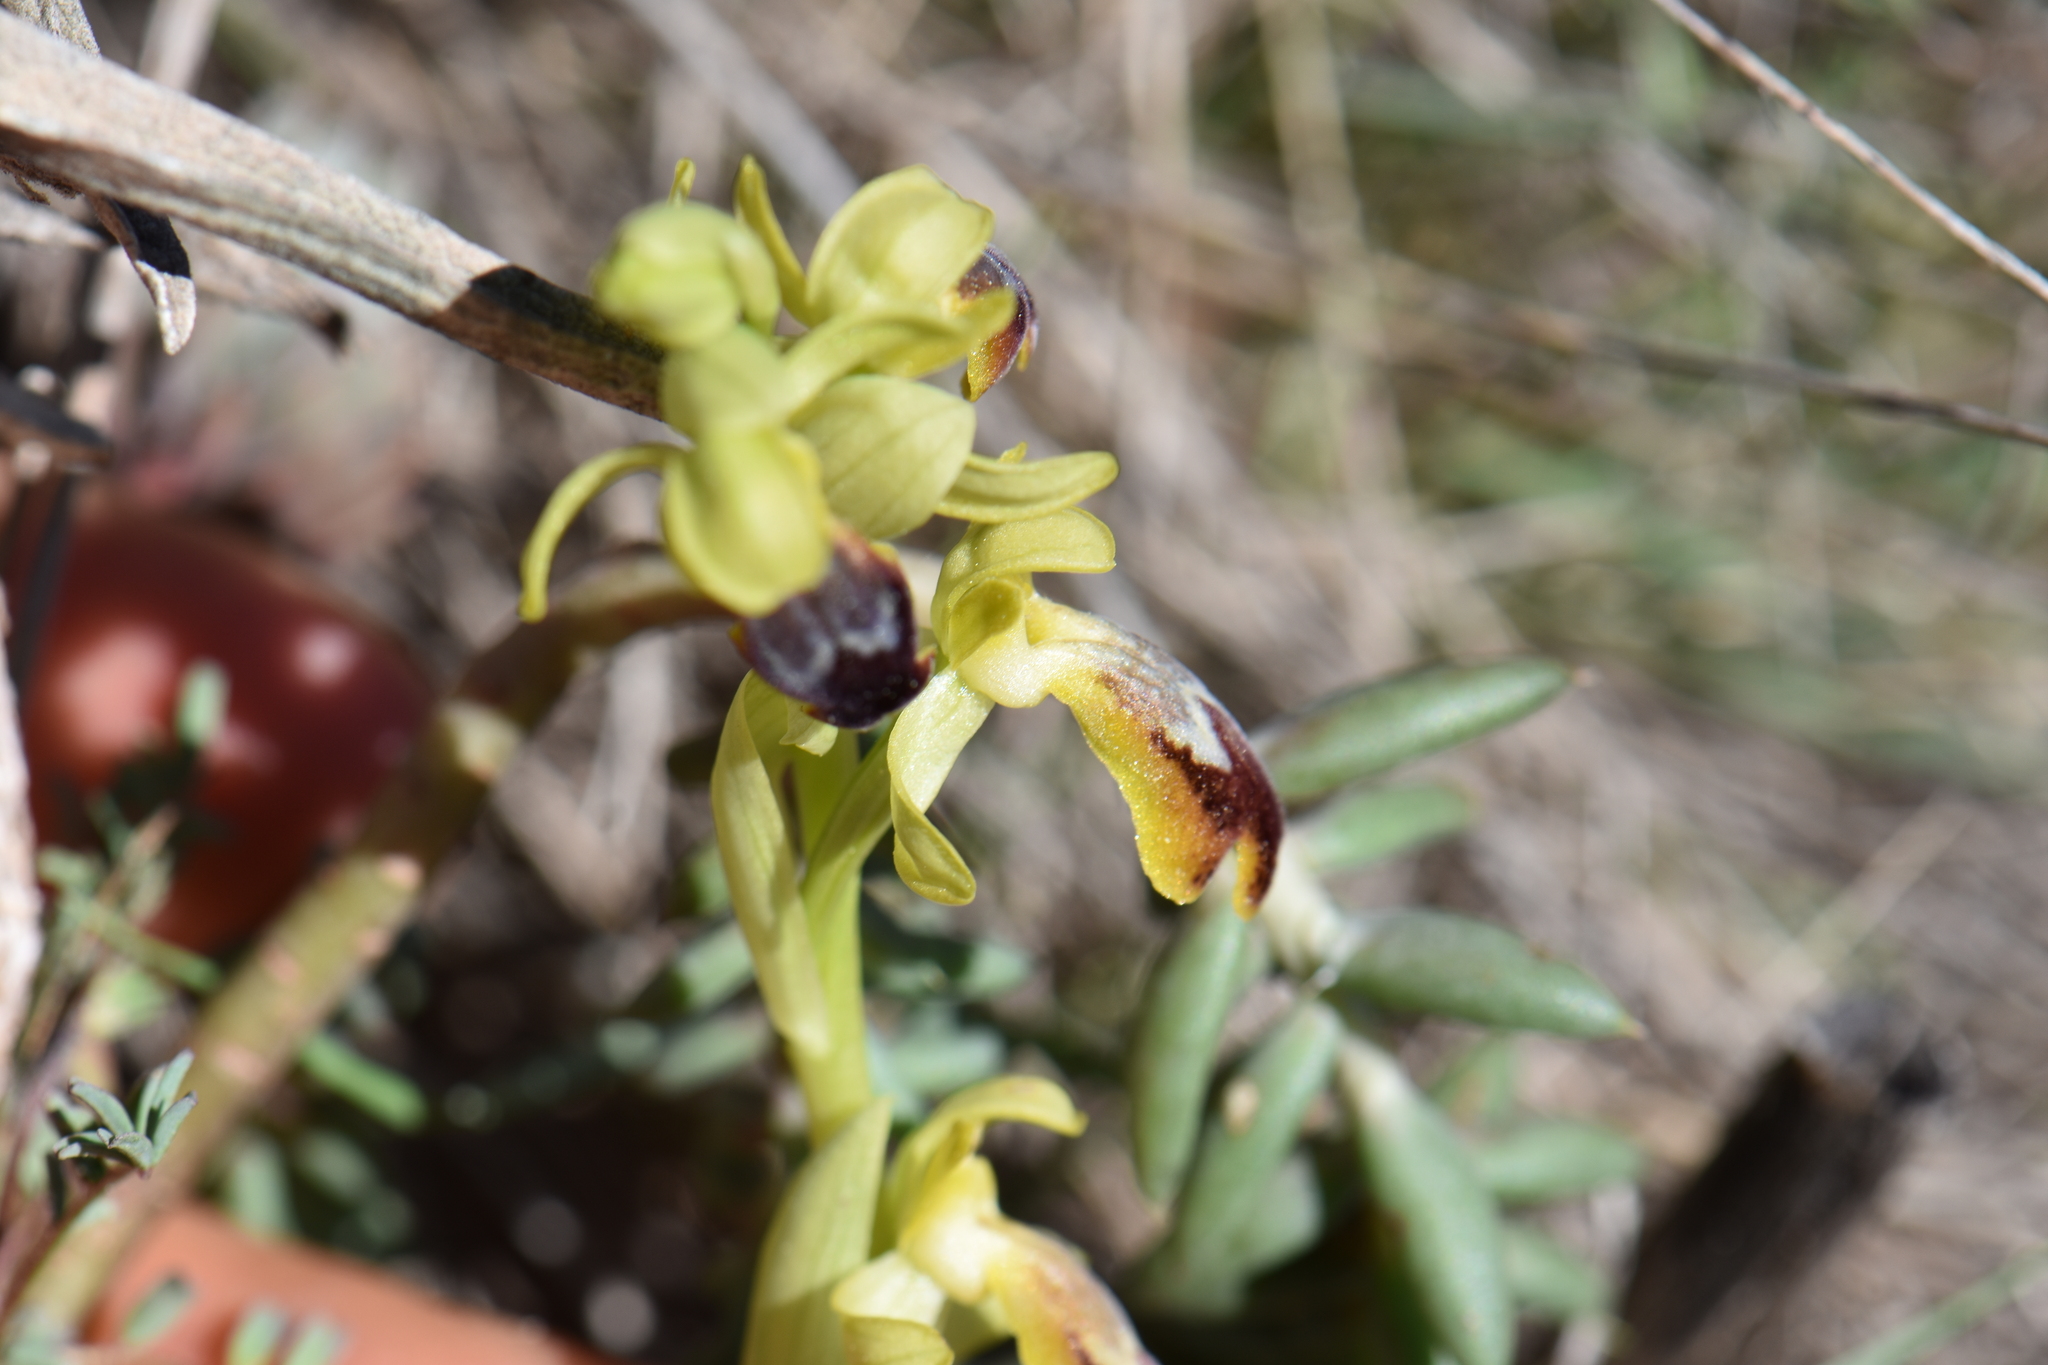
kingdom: Plantae
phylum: Tracheophyta
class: Liliopsida
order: Asparagales
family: Orchidaceae
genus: Ophrys
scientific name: Ophrys fusca
